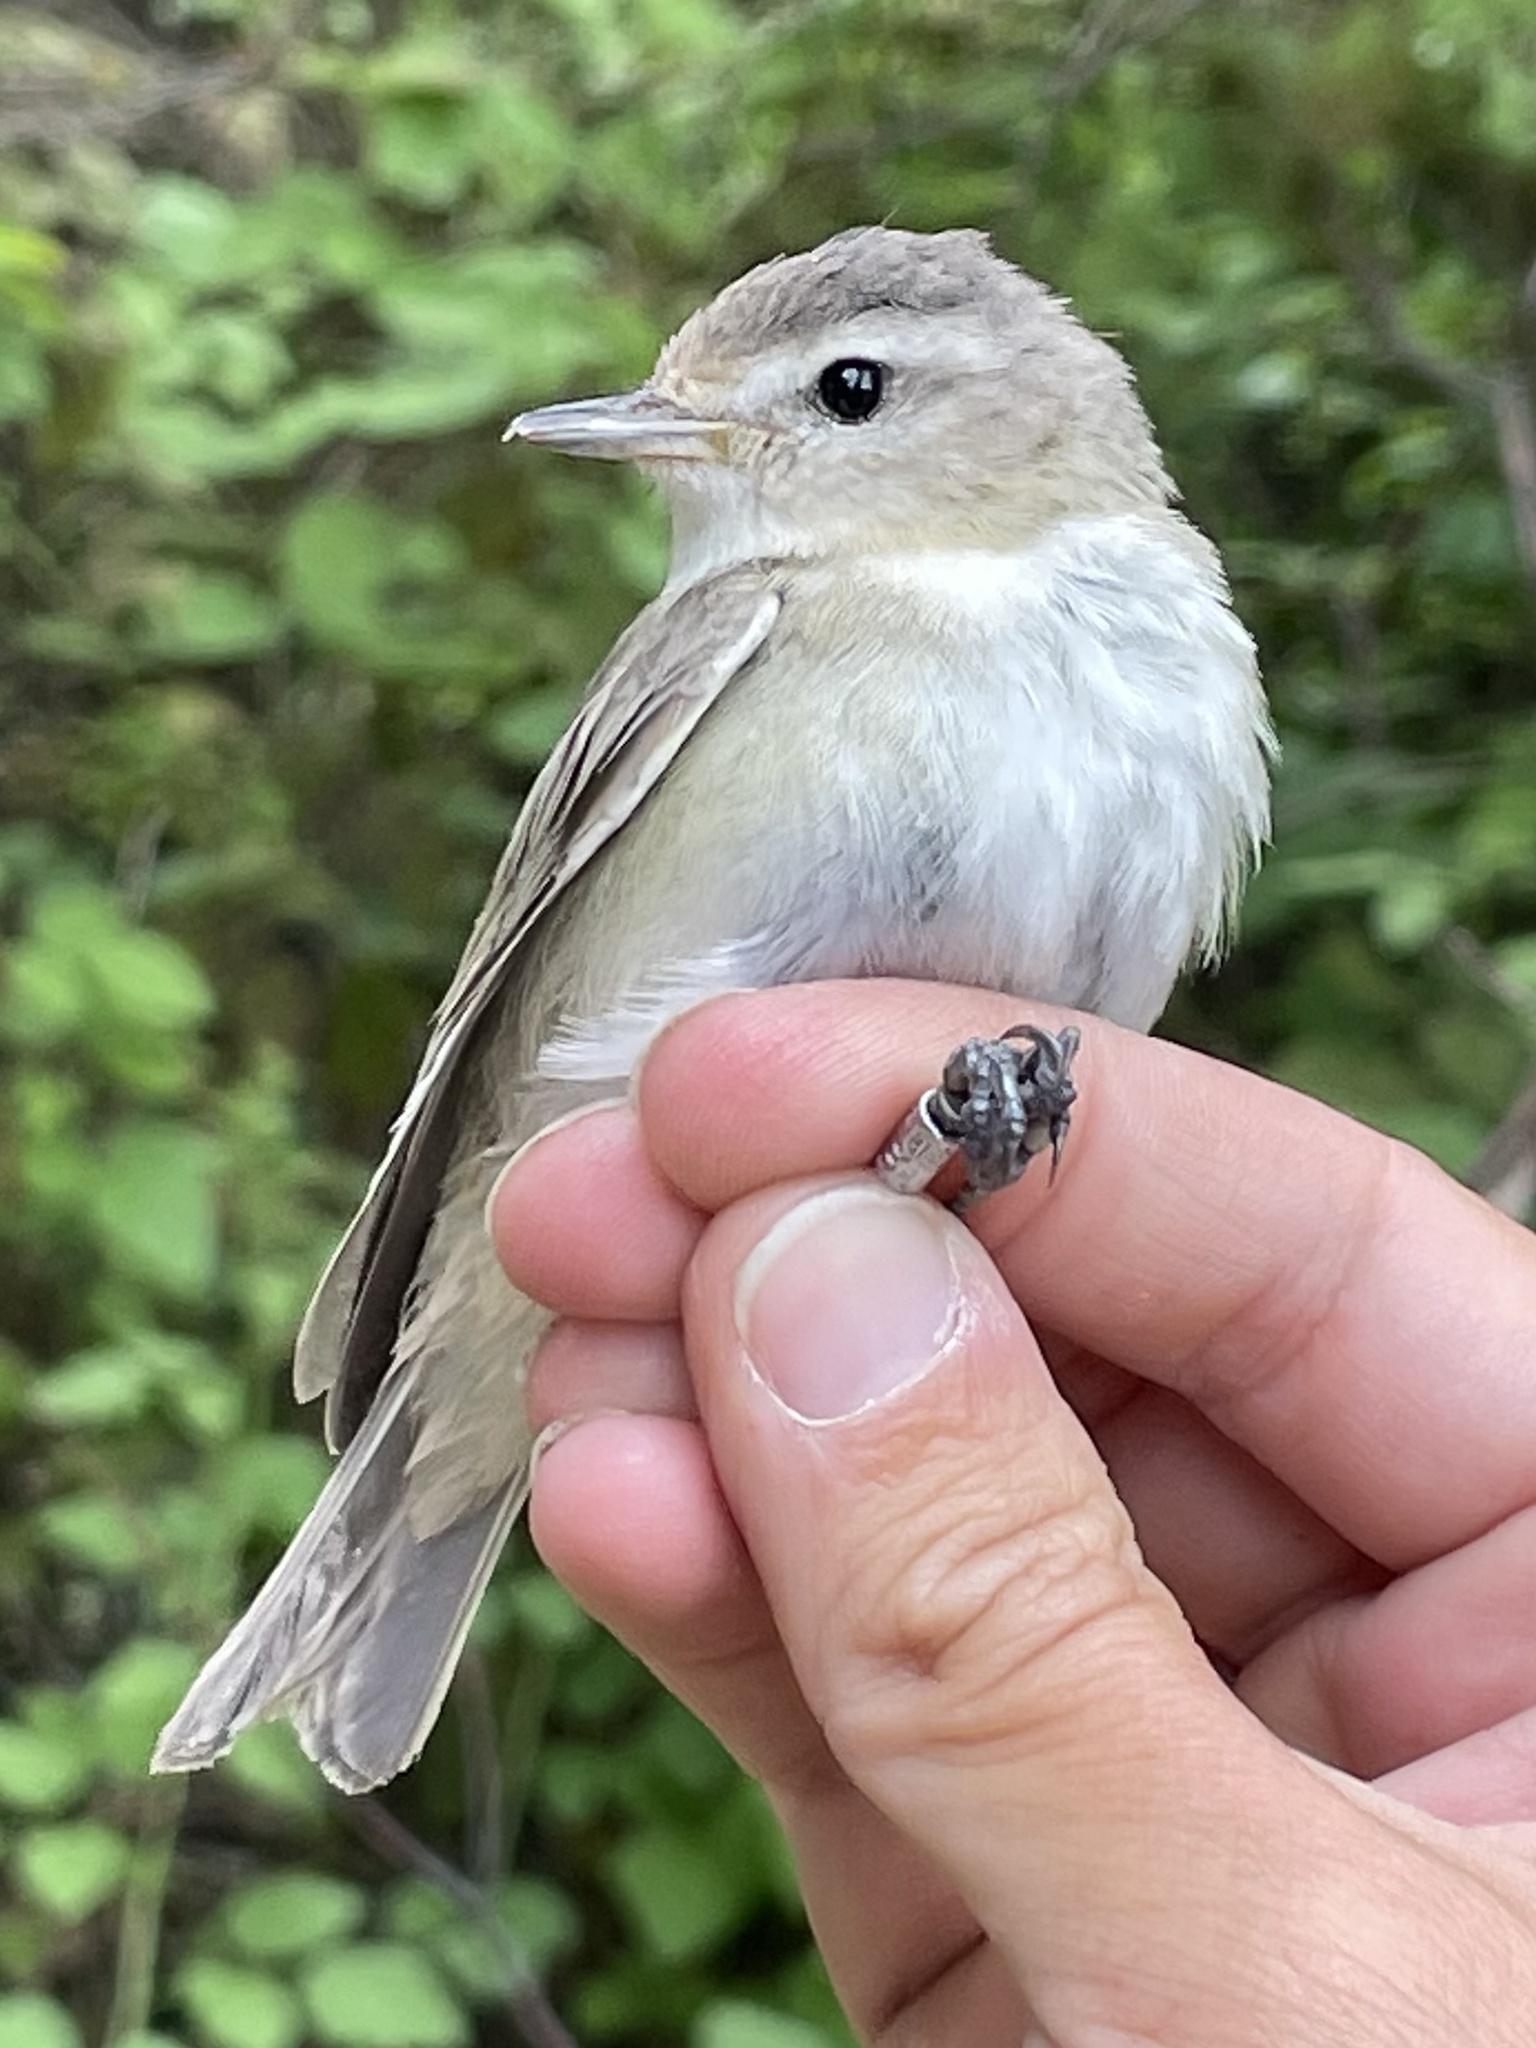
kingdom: Animalia
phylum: Chordata
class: Aves
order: Passeriformes
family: Vireonidae
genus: Vireo
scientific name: Vireo gilvus
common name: Warbling vireo
